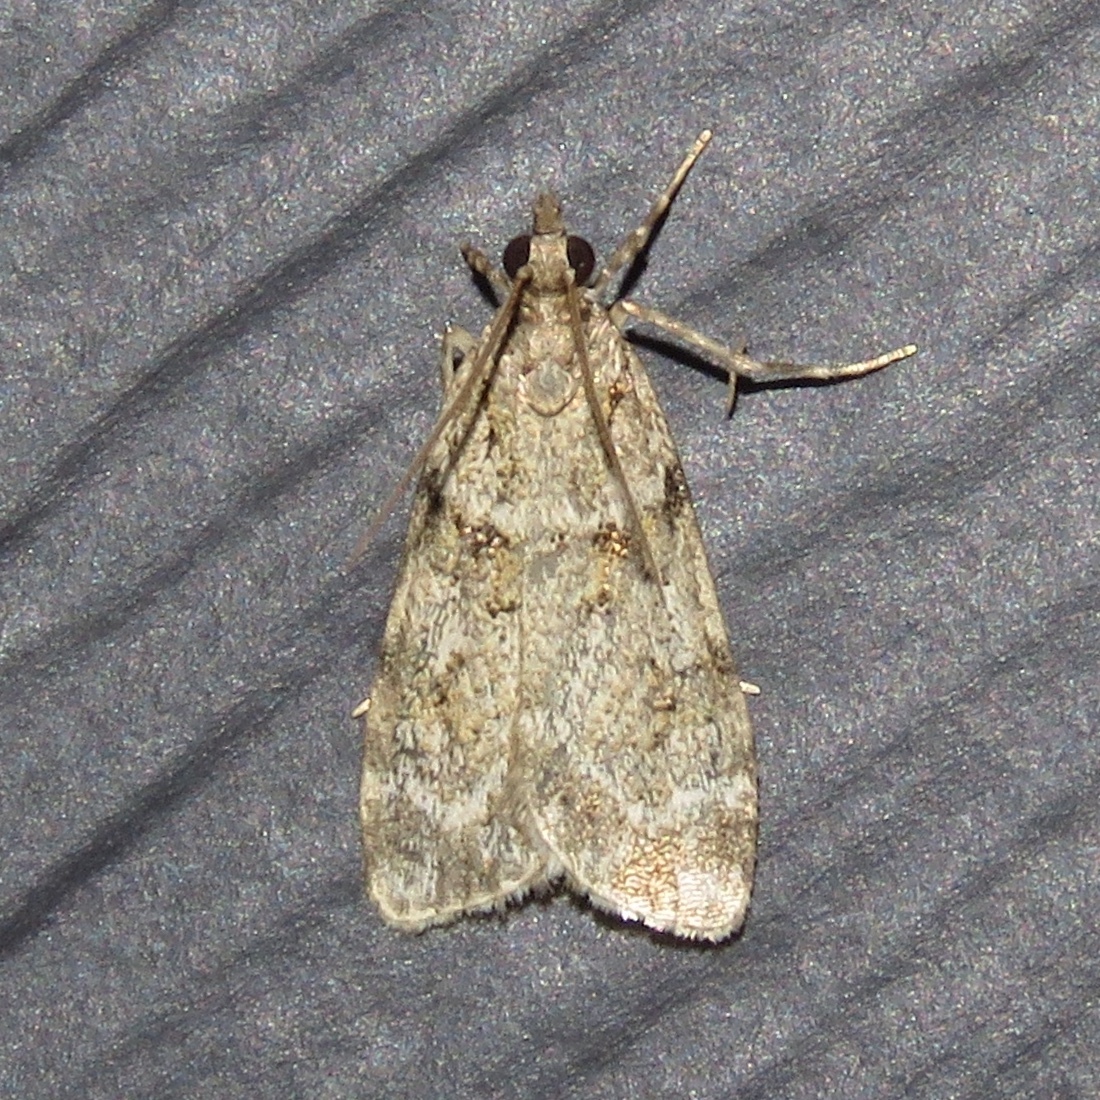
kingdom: Animalia
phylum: Arthropoda
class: Insecta
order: Lepidoptera
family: Crambidae
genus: Scoparia
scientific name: Scoparia biplagialis
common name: Double-striped scoparia moth
